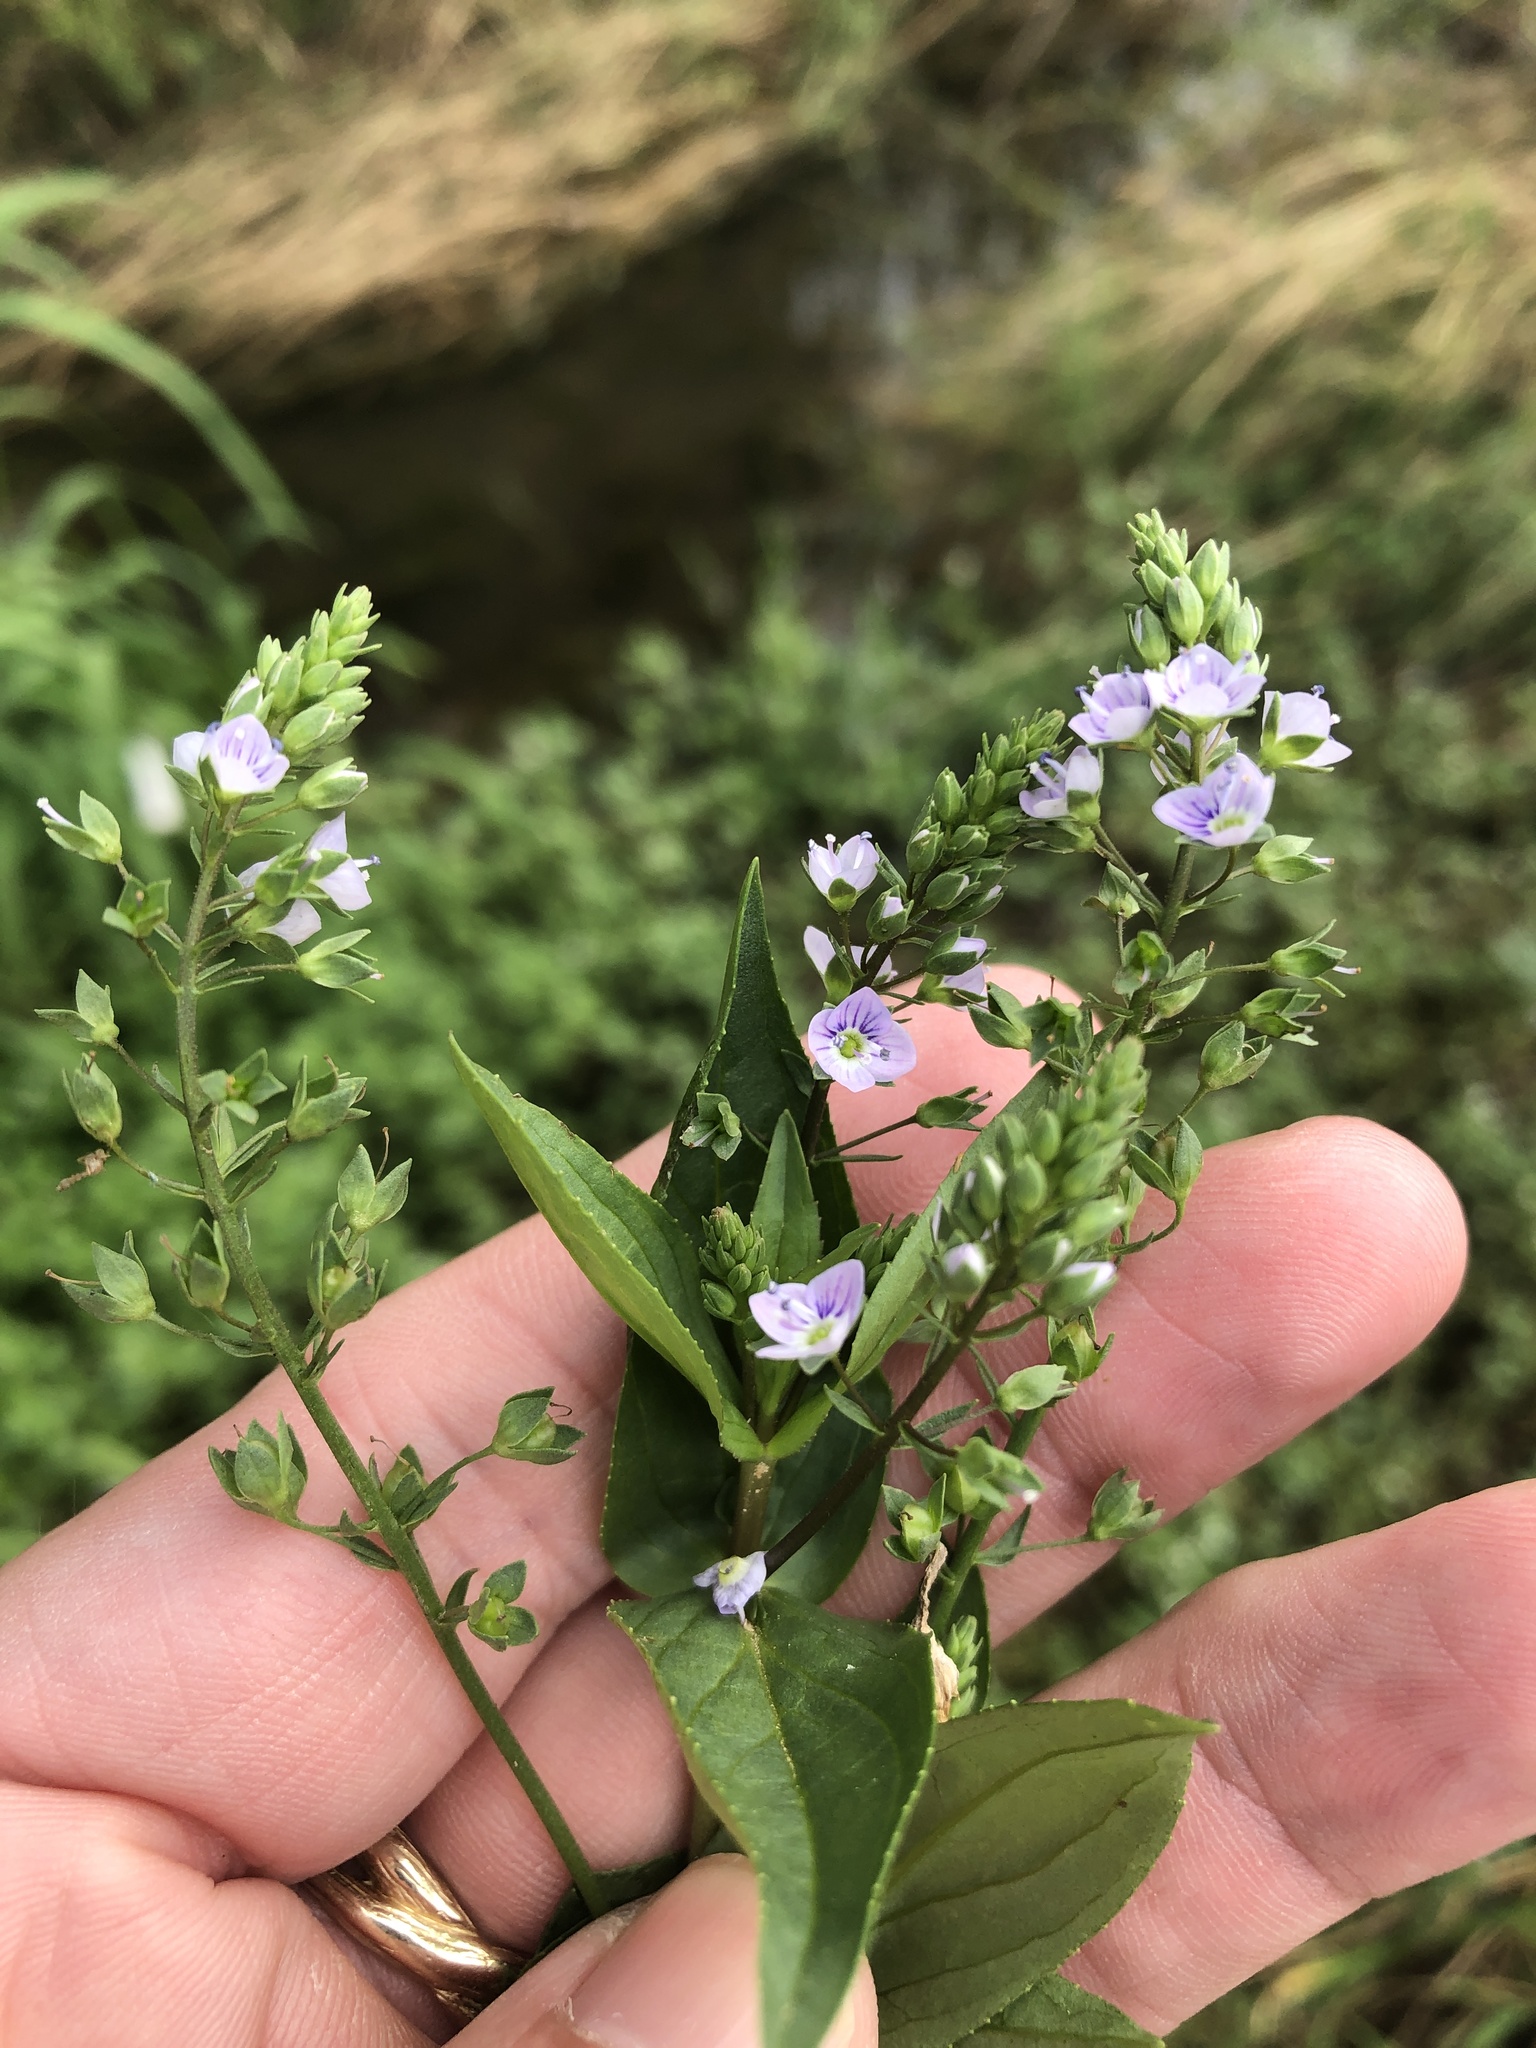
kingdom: Plantae
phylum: Tracheophyta
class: Magnoliopsida
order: Lamiales
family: Plantaginaceae
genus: Veronica
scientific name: Veronica anagallis-aquatica
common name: Water speedwell
